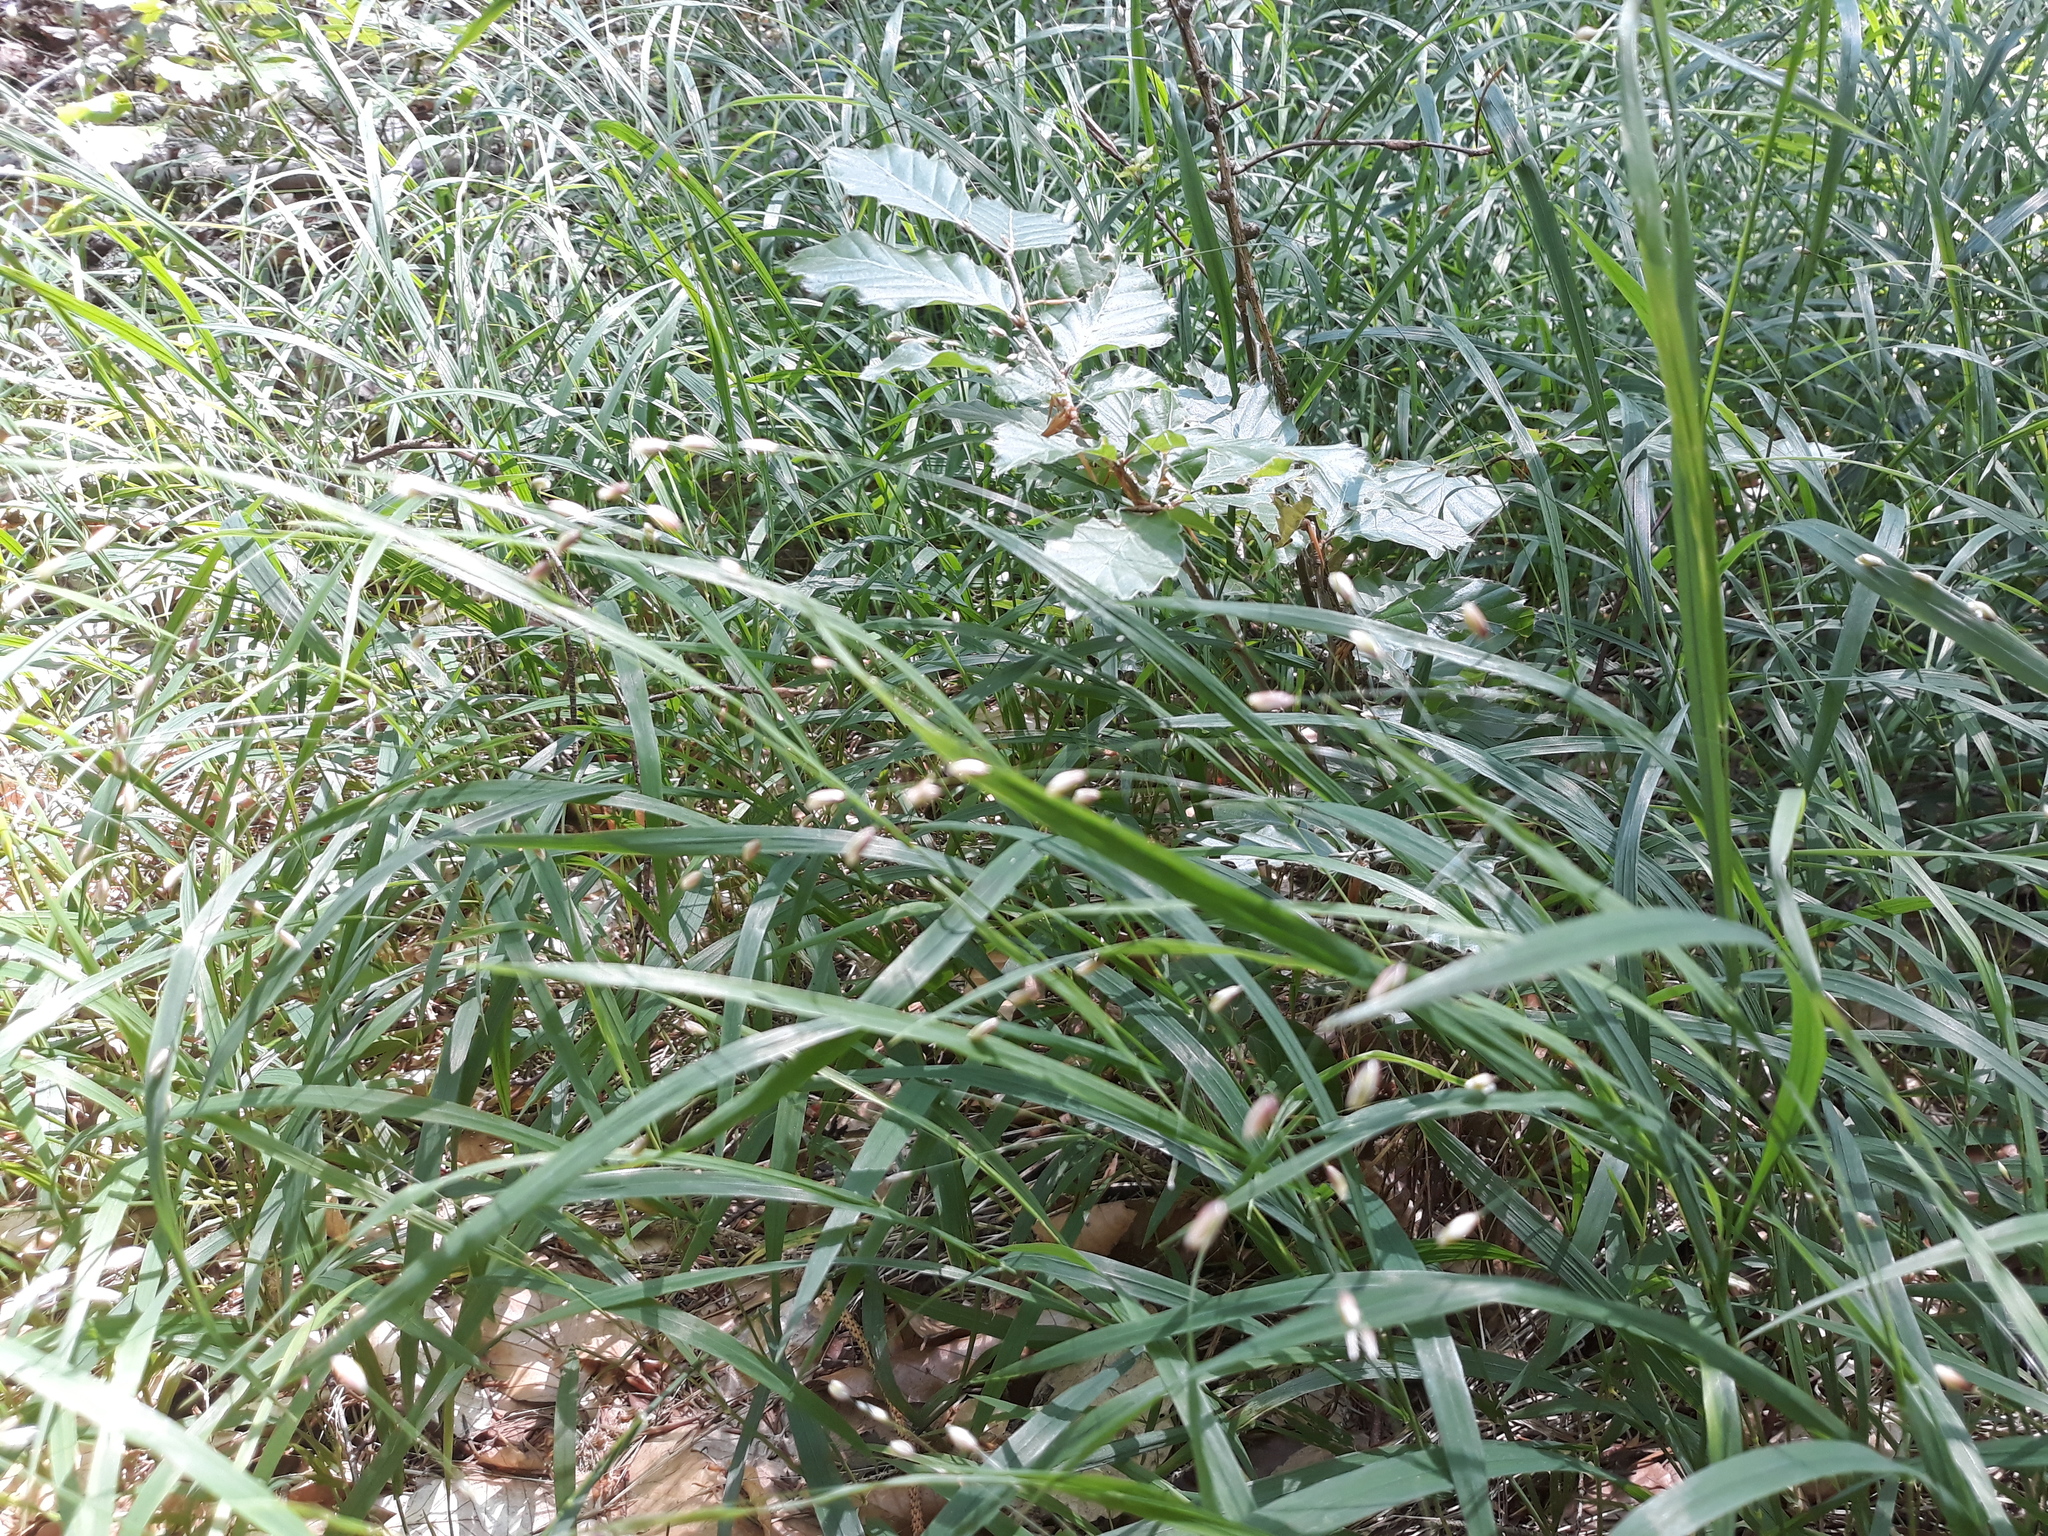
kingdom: Plantae
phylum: Tracheophyta
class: Liliopsida
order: Poales
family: Poaceae
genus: Melica
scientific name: Melica uniflora
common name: Wood melick
